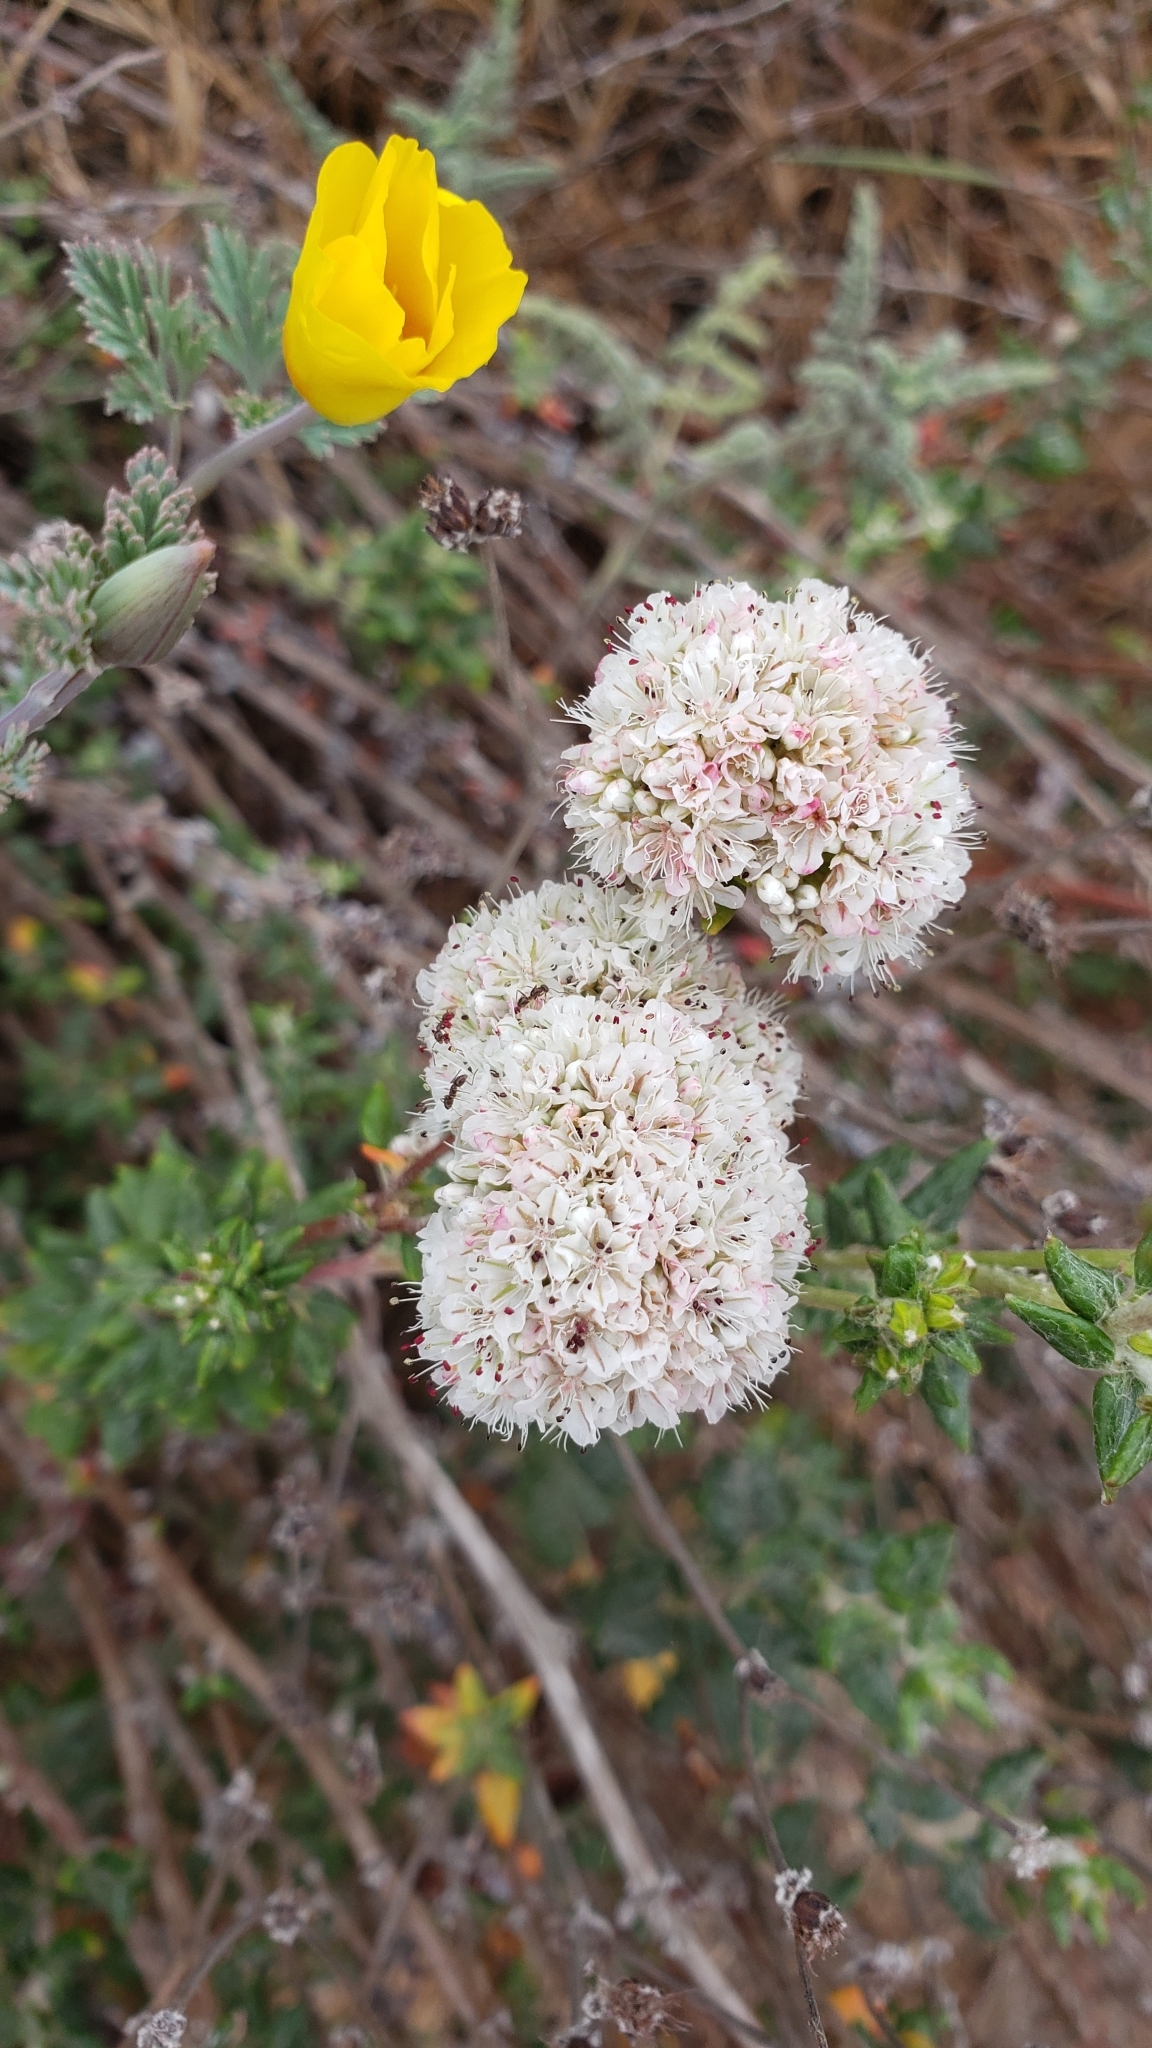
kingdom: Plantae
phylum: Tracheophyta
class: Magnoliopsida
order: Caryophyllales
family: Polygonaceae
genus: Eriogonum
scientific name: Eriogonum parvifolium
